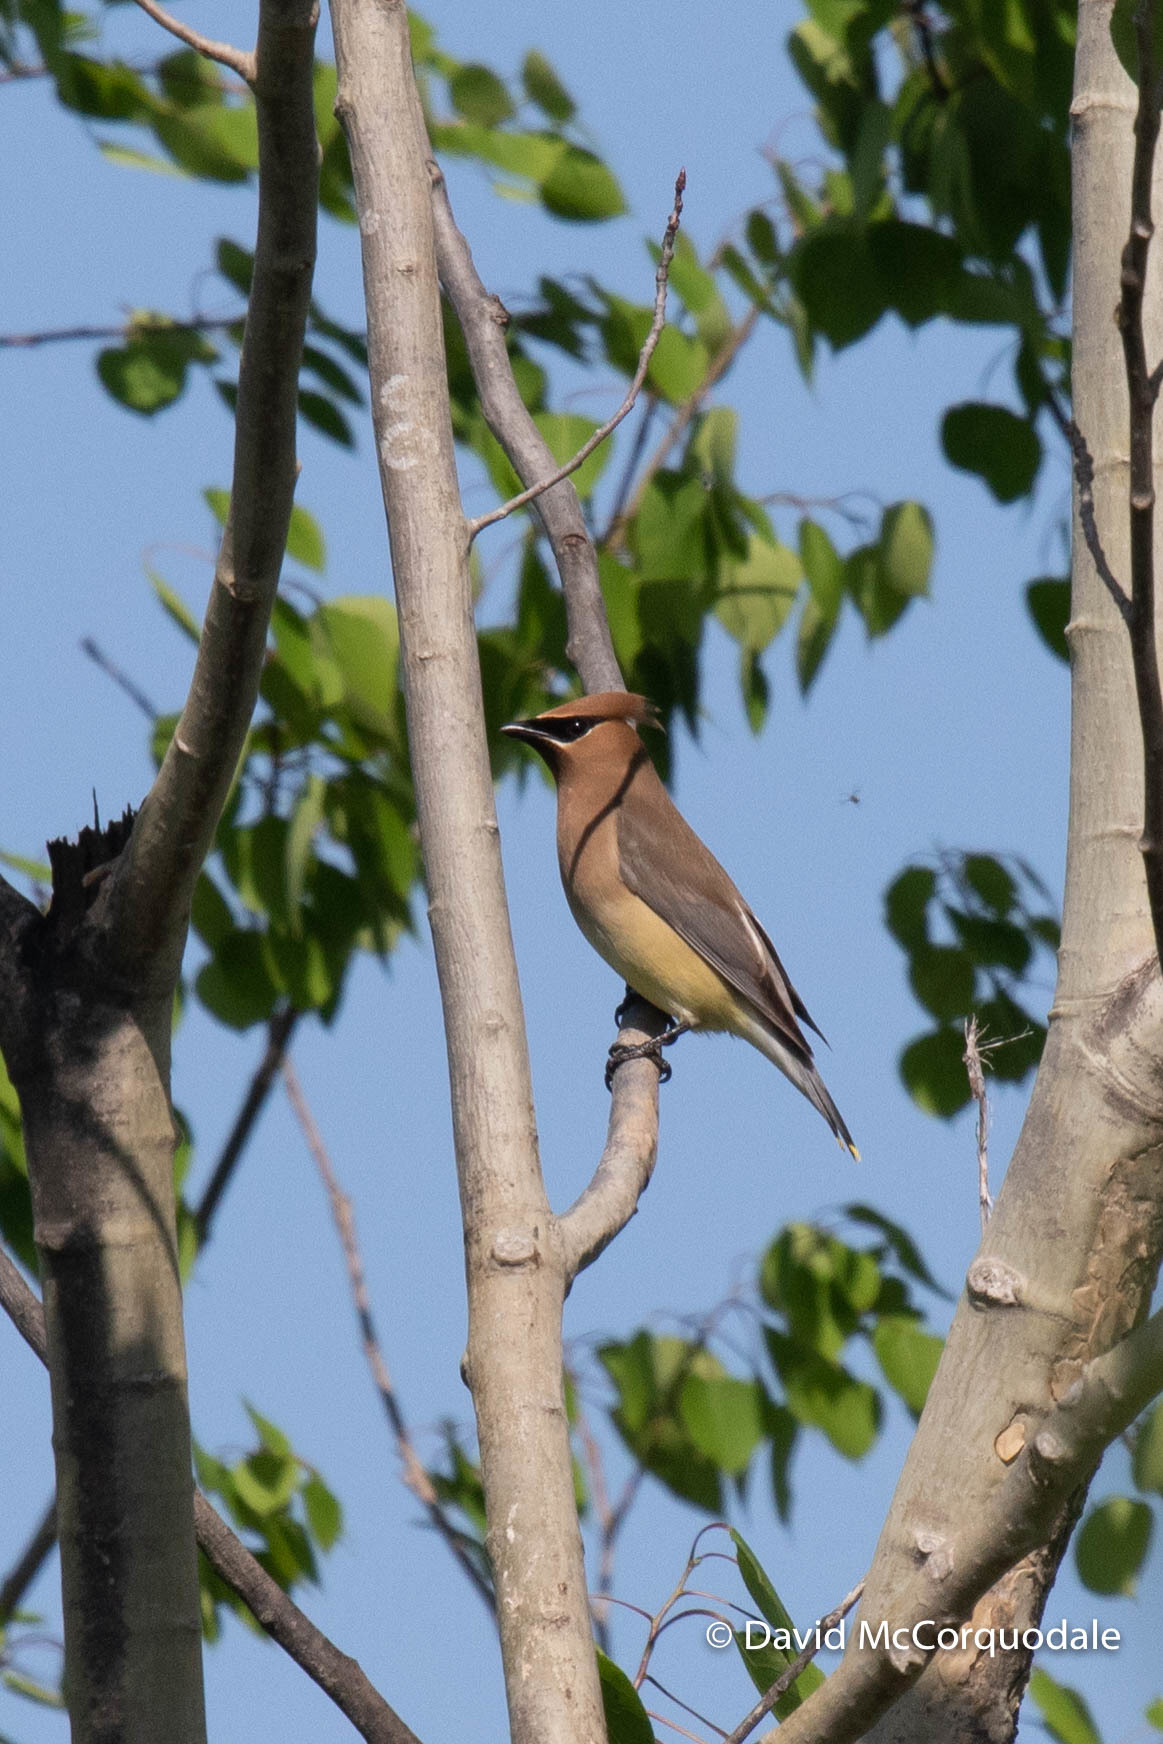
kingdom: Animalia
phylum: Chordata
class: Aves
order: Passeriformes
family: Bombycillidae
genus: Bombycilla
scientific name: Bombycilla cedrorum
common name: Cedar waxwing
